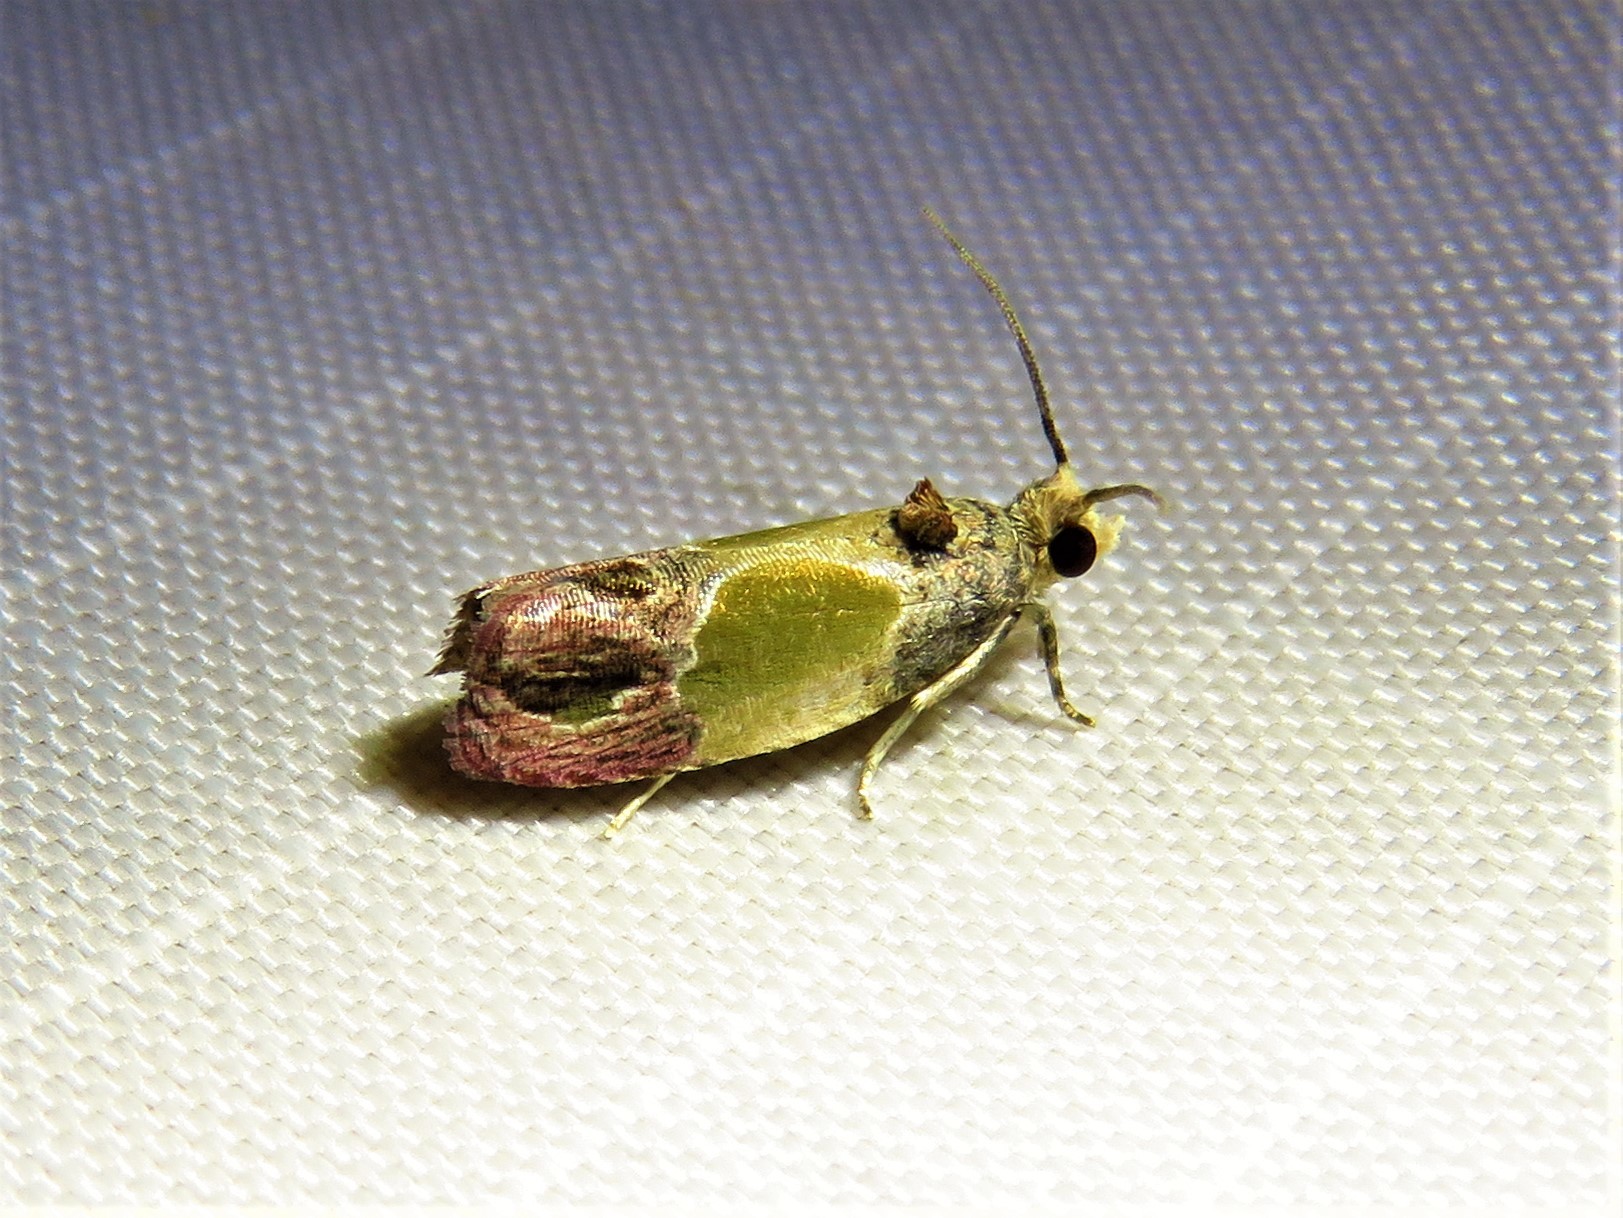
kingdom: Animalia
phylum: Arthropoda
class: Insecta
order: Lepidoptera
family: Tortricidae
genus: Eumarozia
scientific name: Eumarozia malachitana
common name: Sculptured moth
